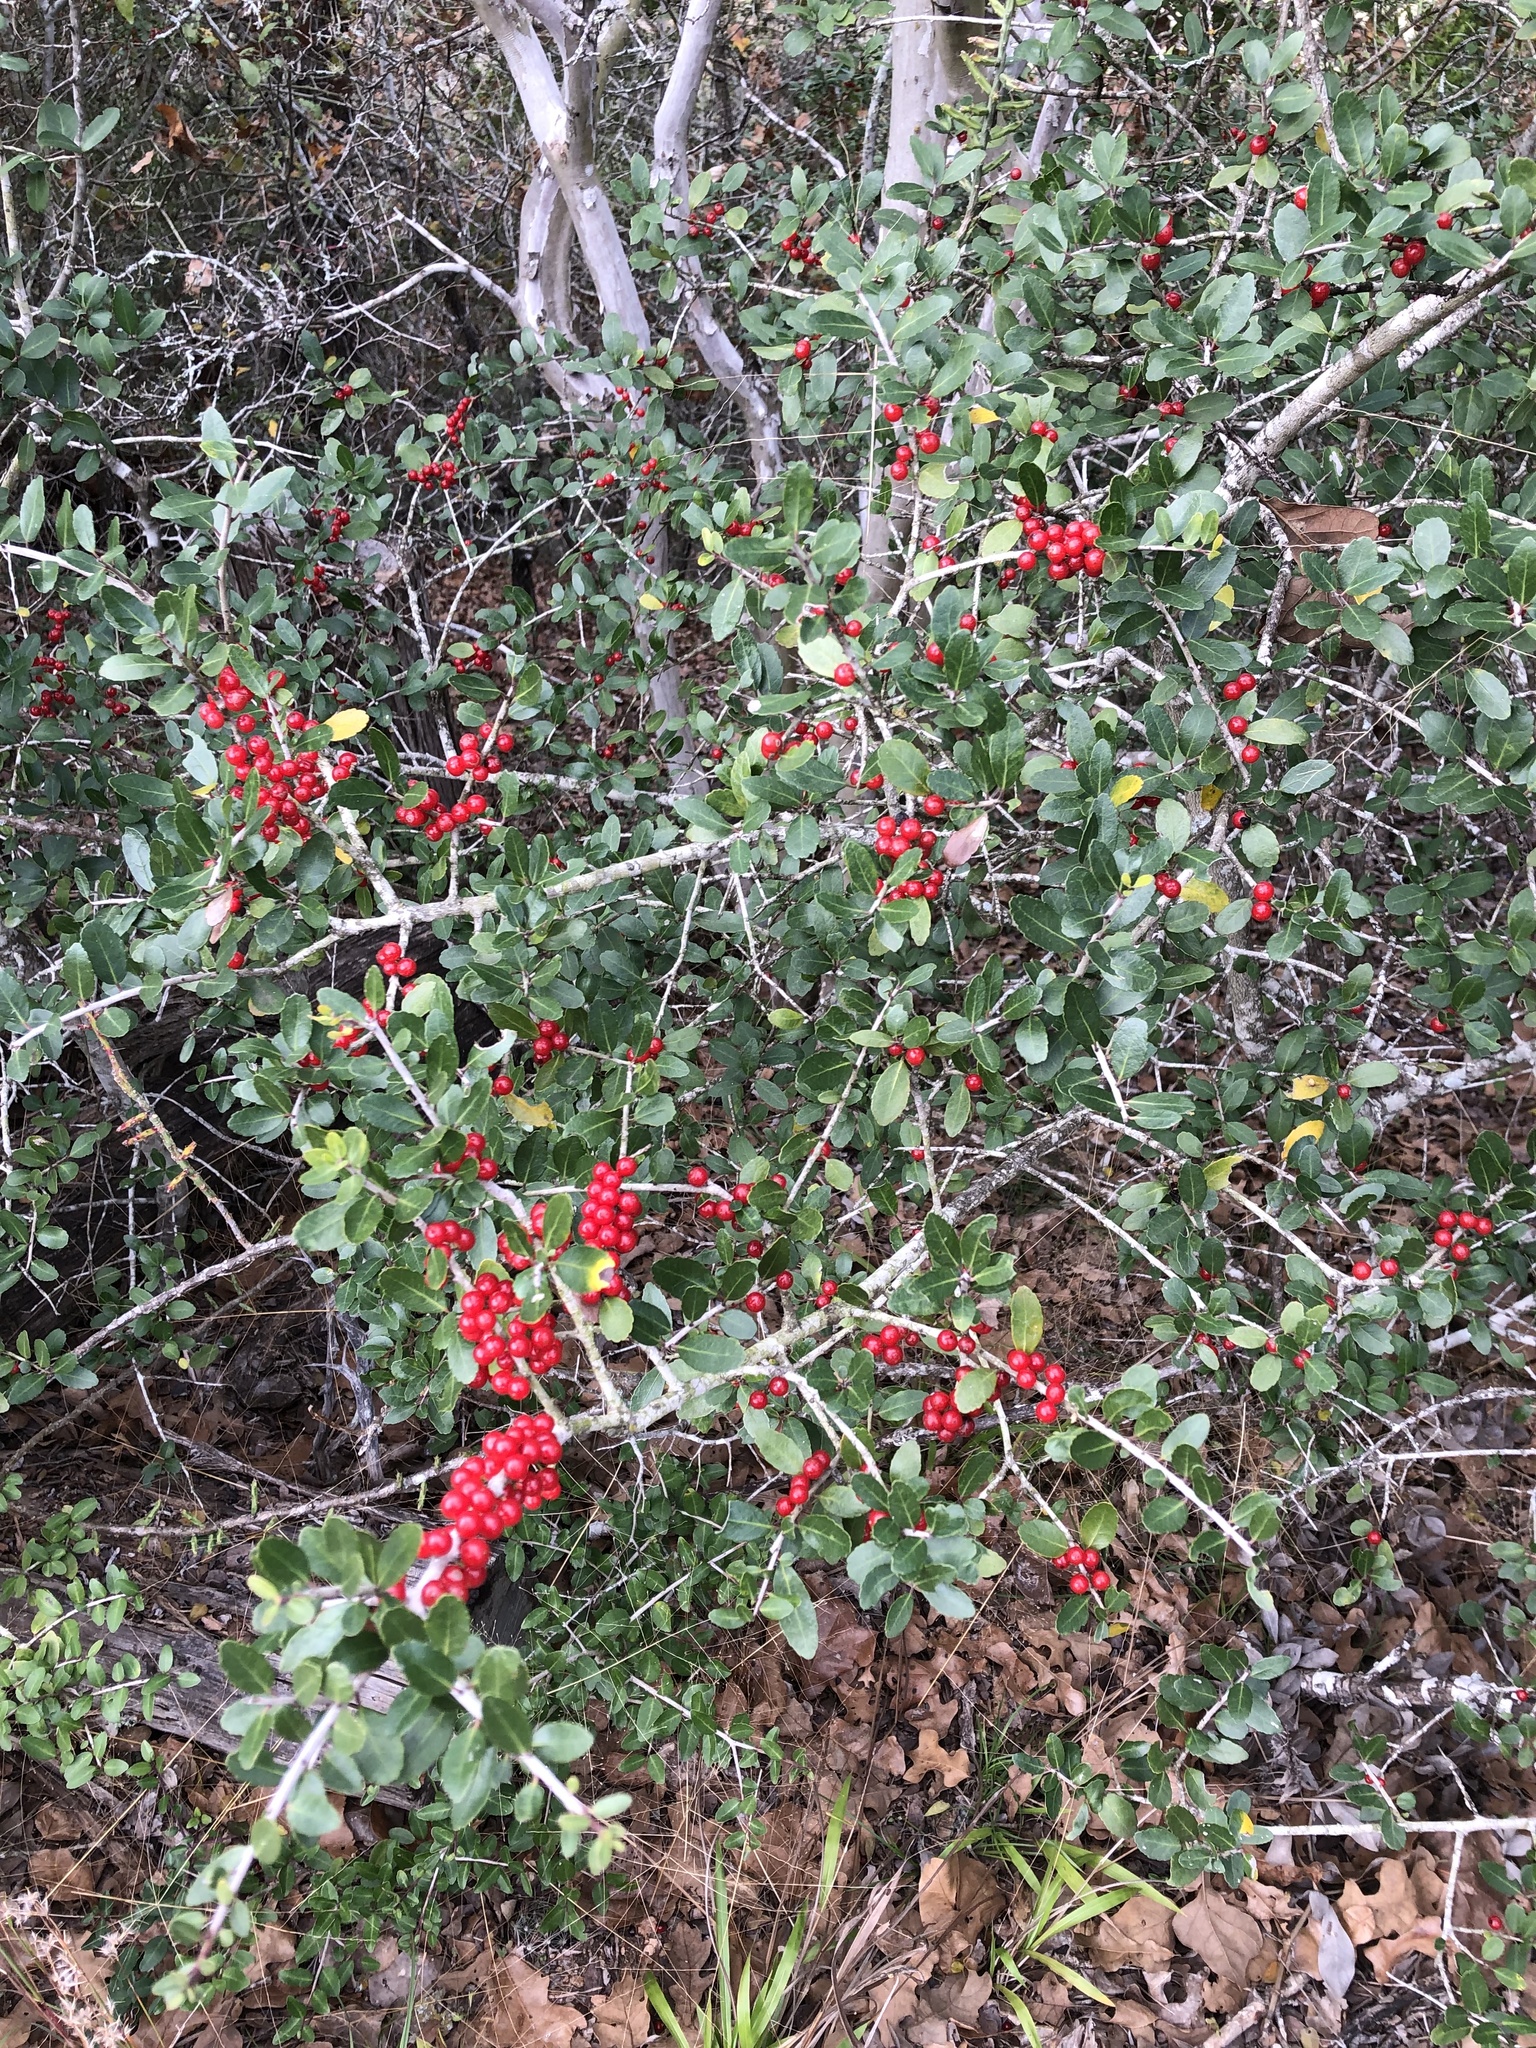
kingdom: Plantae
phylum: Tracheophyta
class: Magnoliopsida
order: Aquifoliales
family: Aquifoliaceae
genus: Ilex
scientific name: Ilex vomitoria
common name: Yaupon holly
